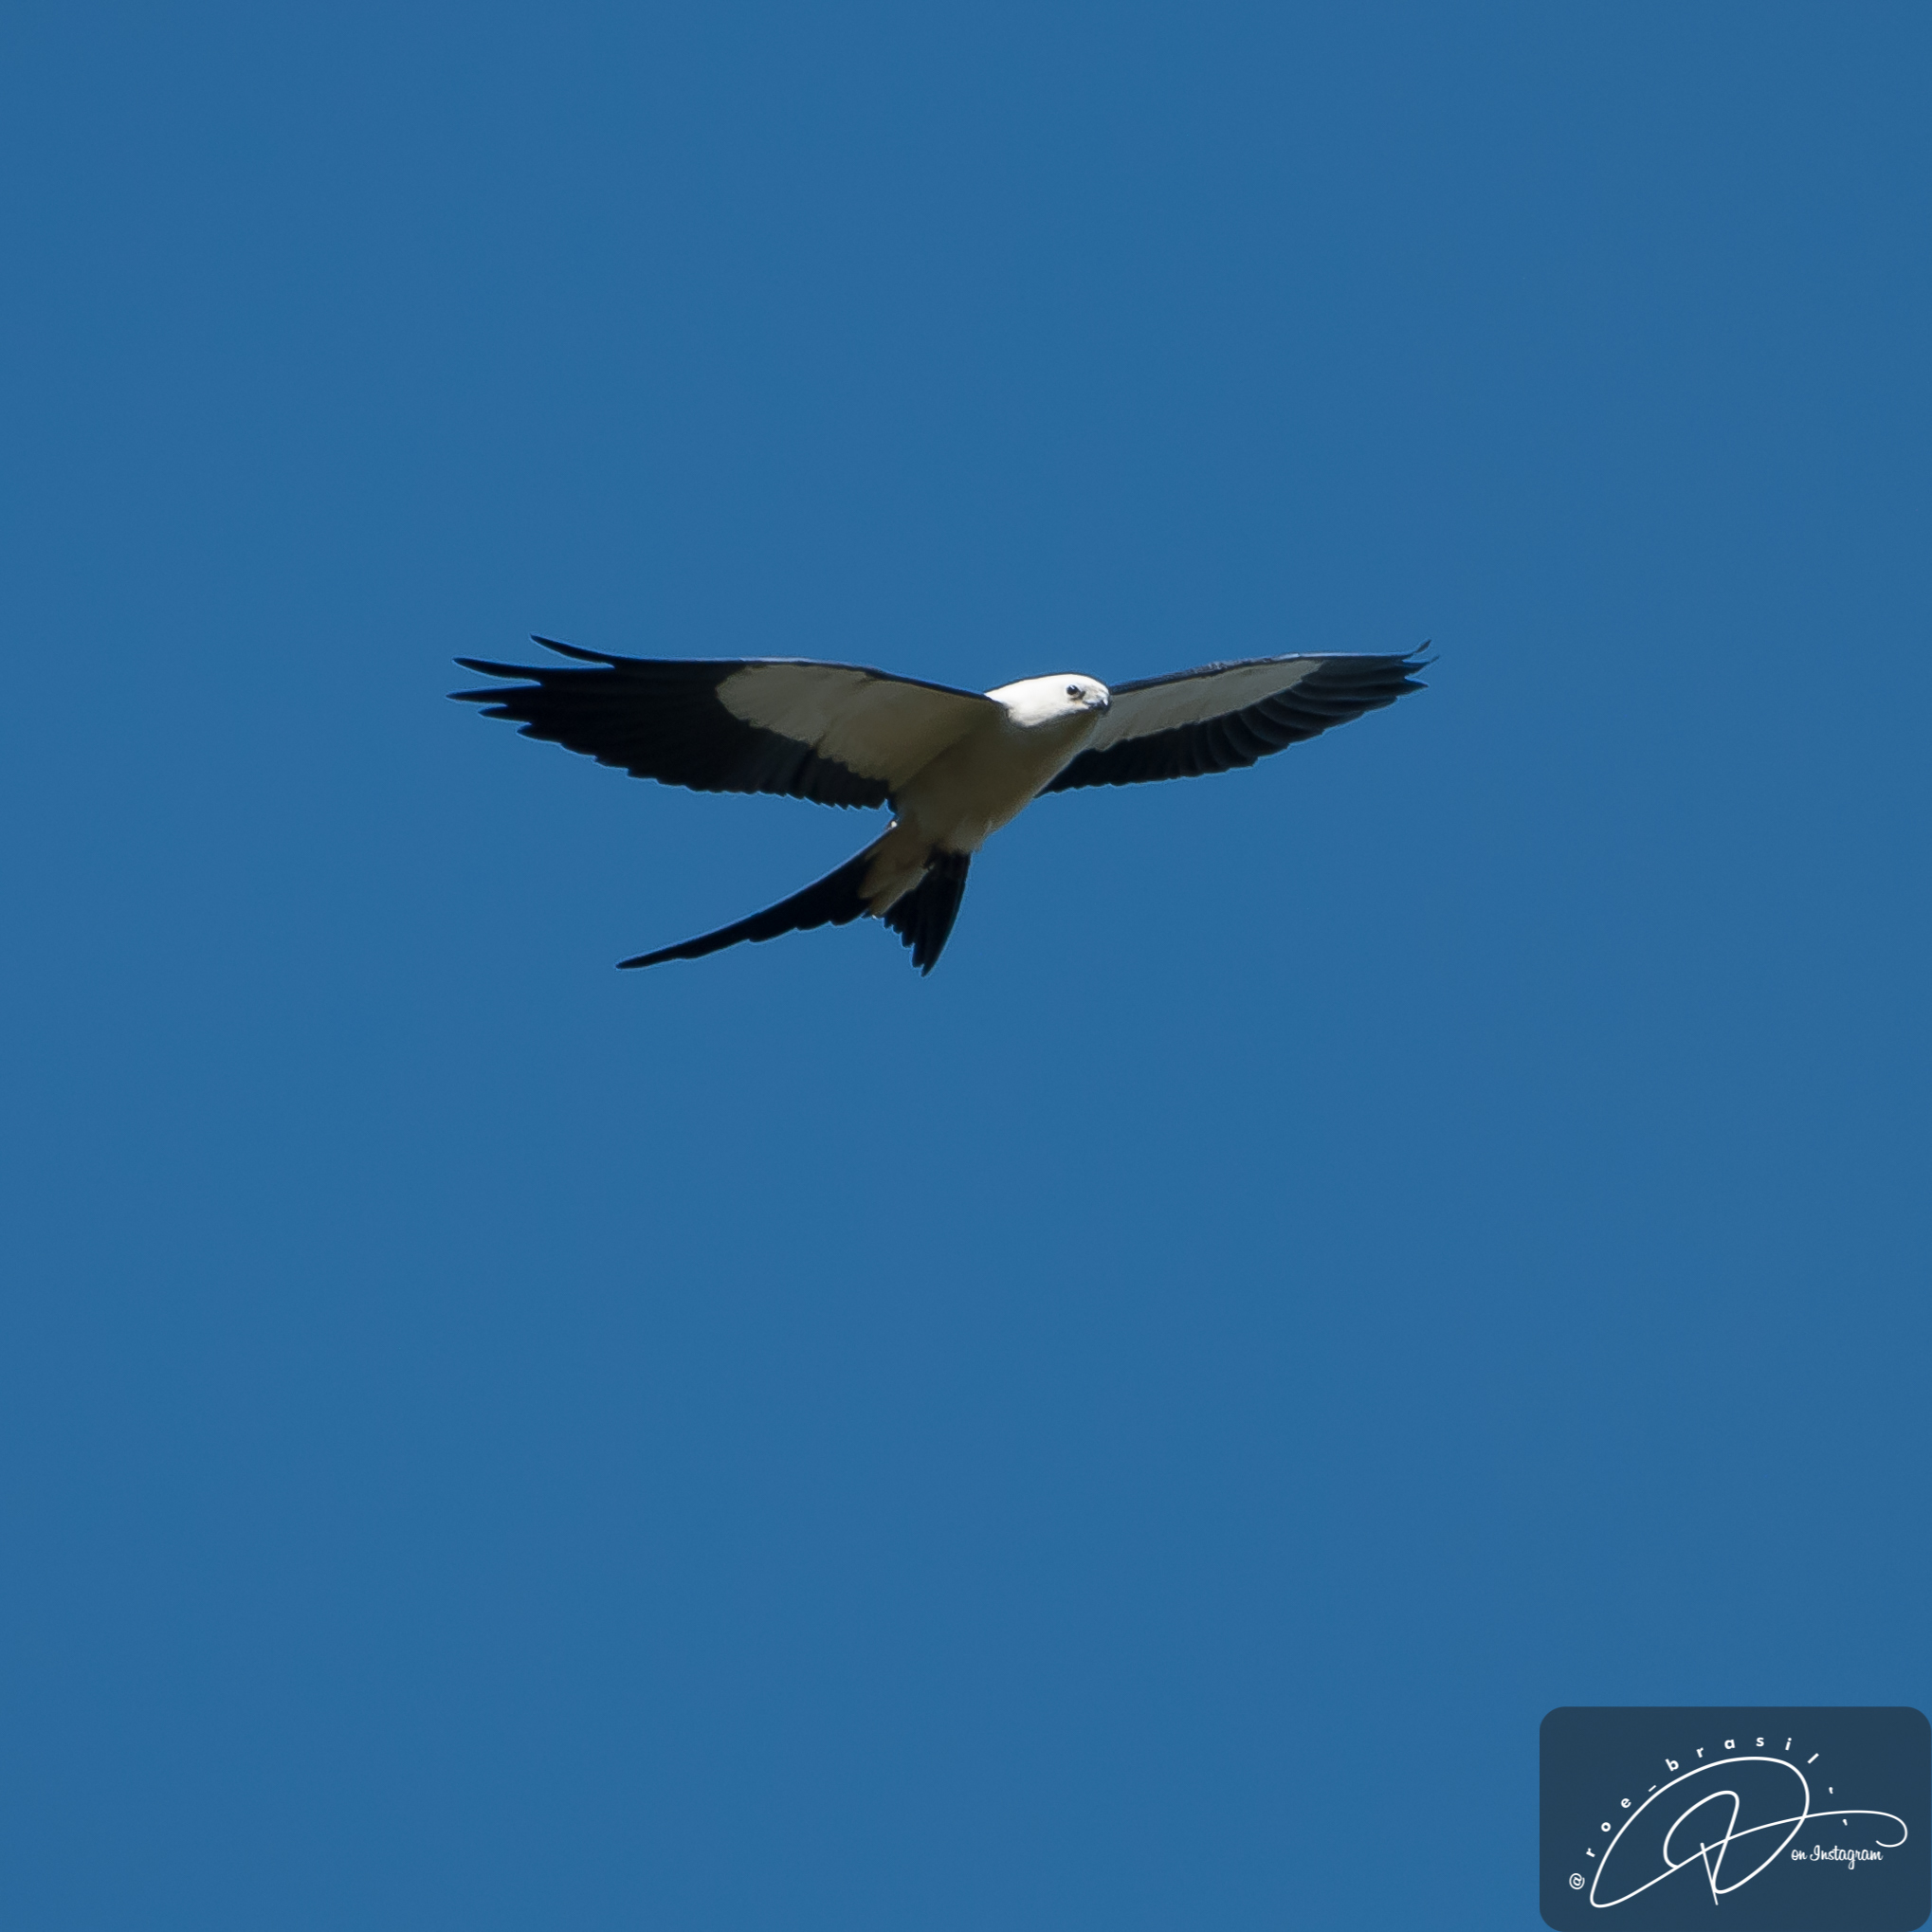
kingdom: Animalia
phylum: Chordata
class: Aves
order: Accipitriformes
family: Accipitridae
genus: Elanoides
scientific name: Elanoides forficatus
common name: Swallow-tailed kite
